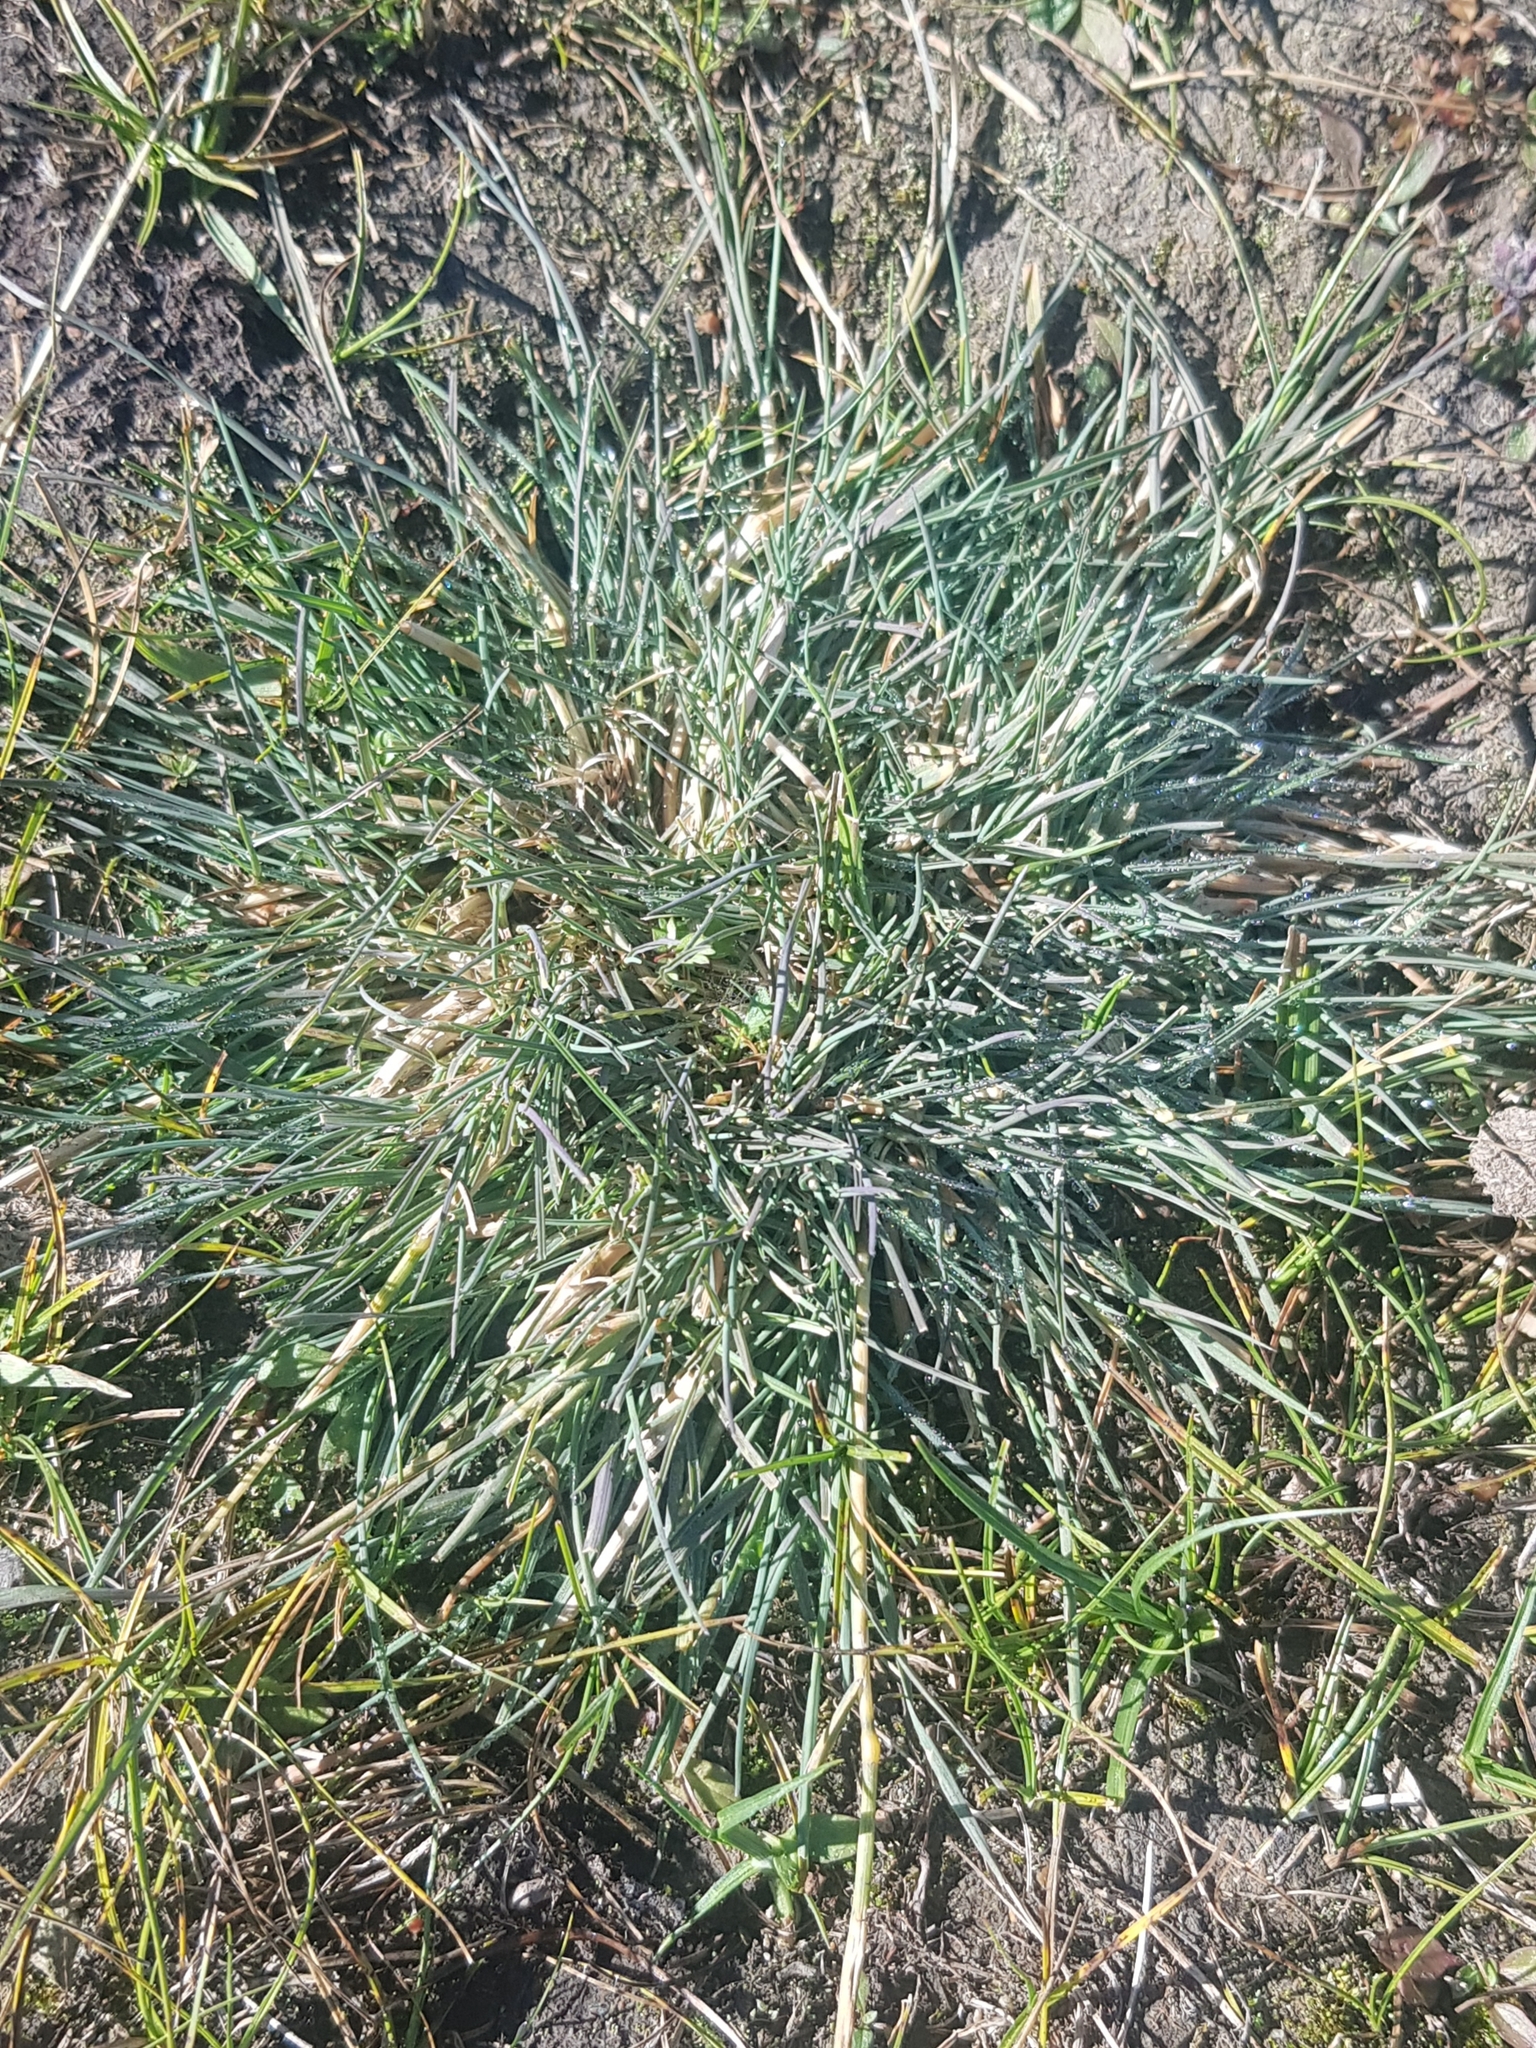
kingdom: Plantae
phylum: Tracheophyta
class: Liliopsida
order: Poales
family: Poaceae
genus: Festuca
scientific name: Festuca lenensis
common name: Lena river fescue
